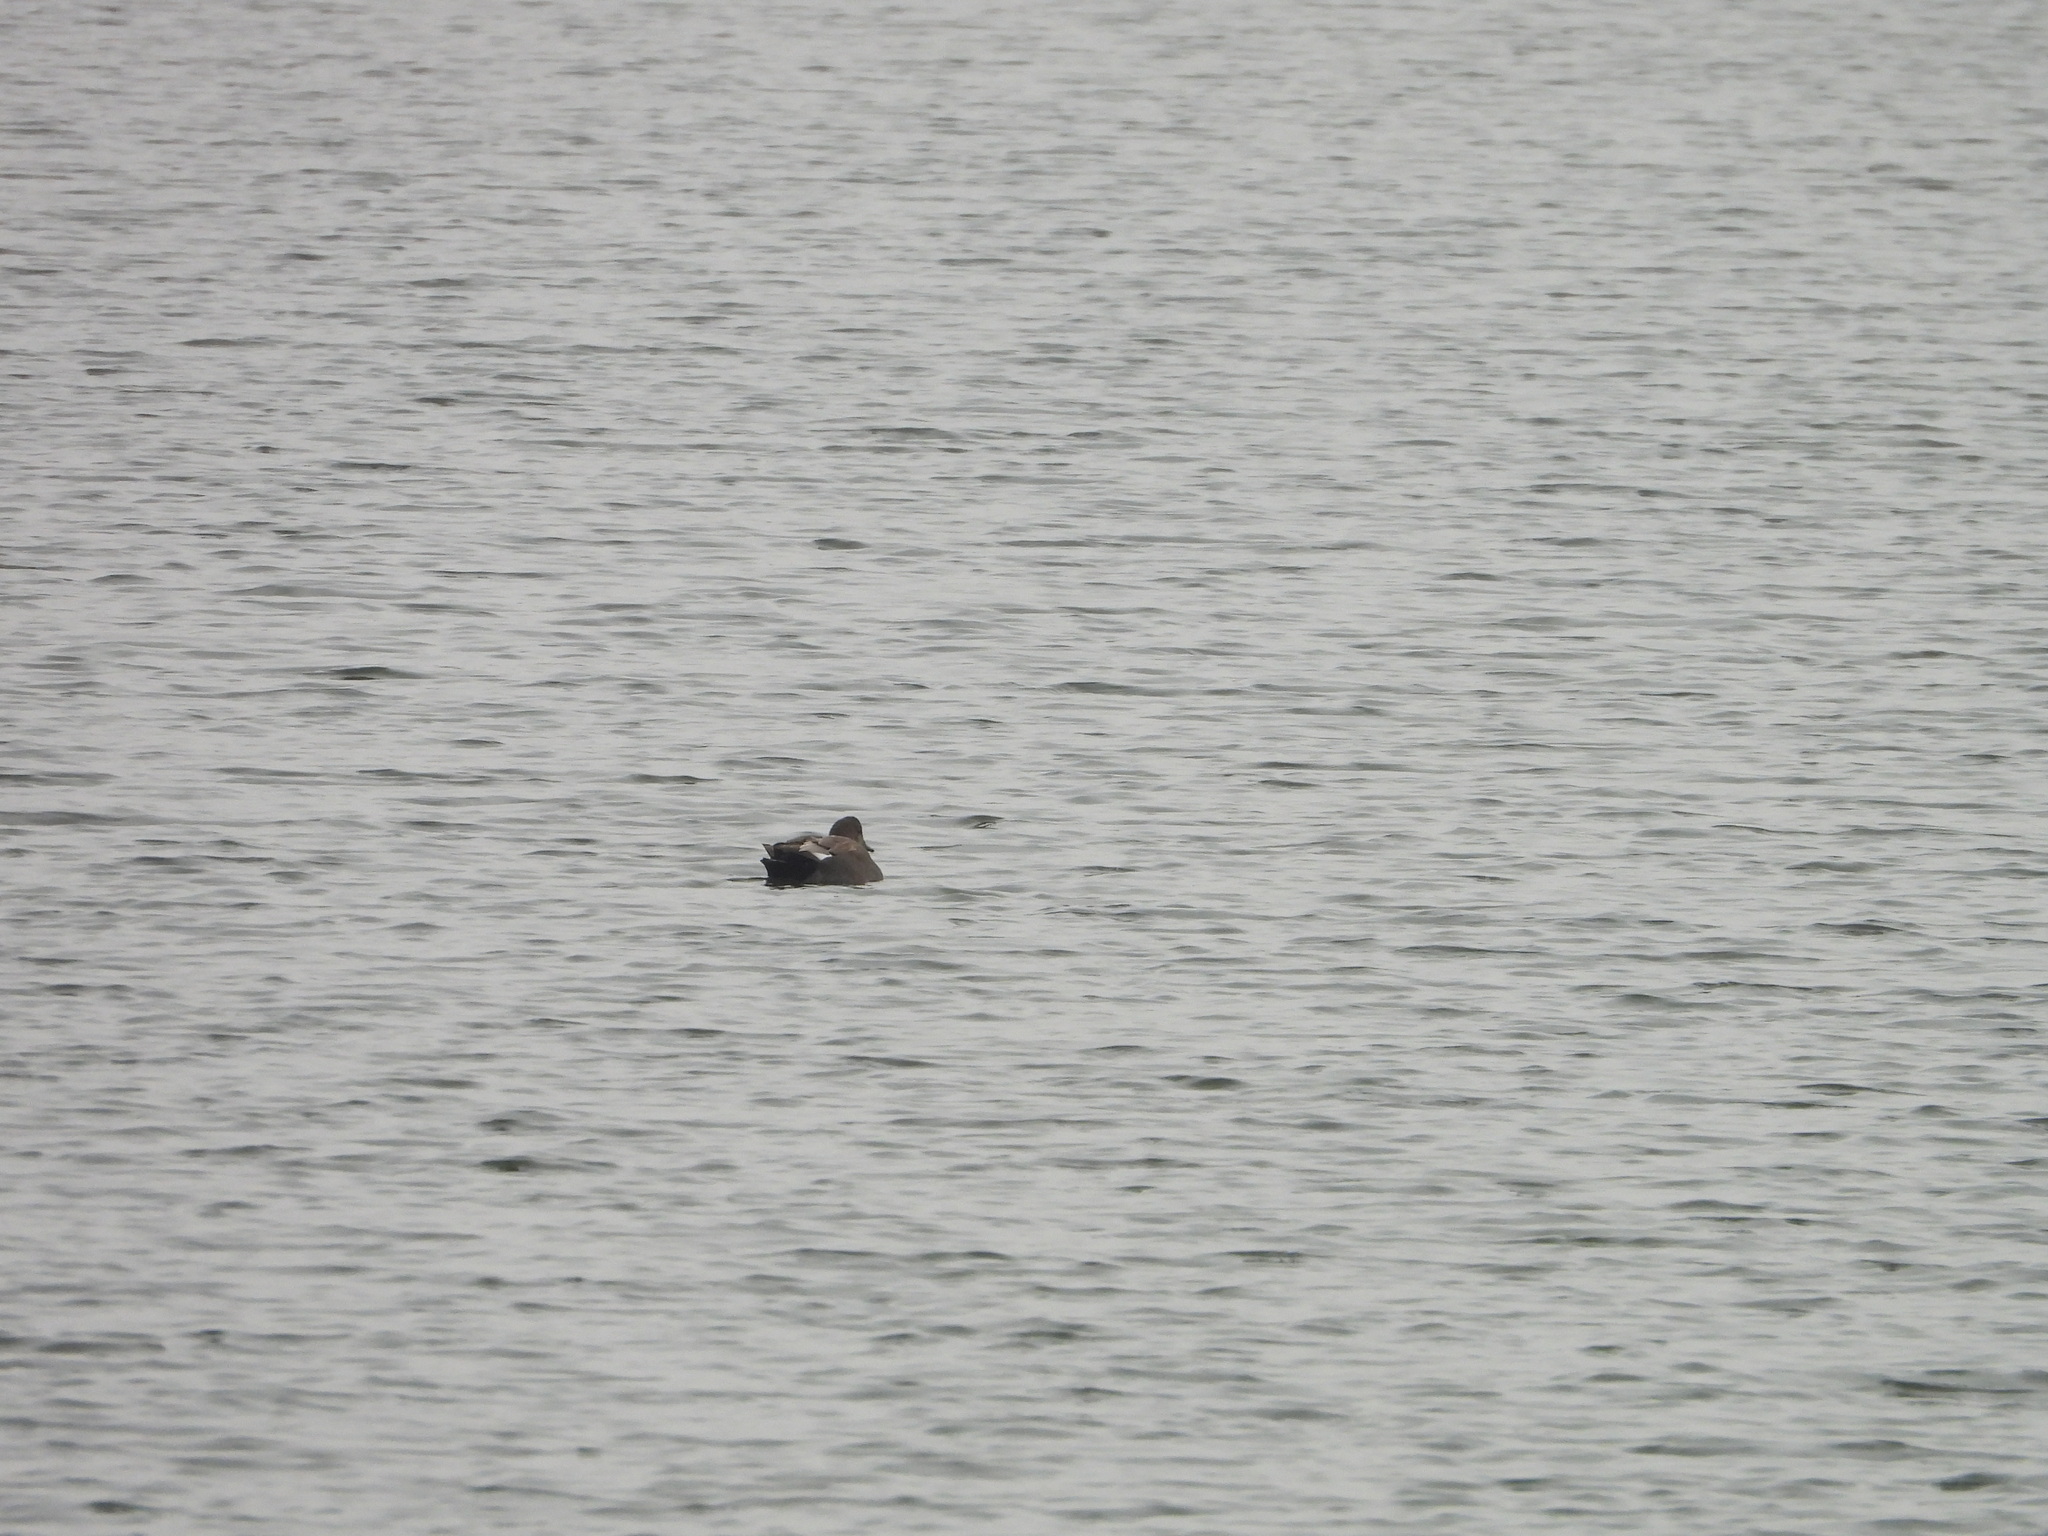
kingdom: Animalia
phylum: Chordata
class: Aves
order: Anseriformes
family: Anatidae
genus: Mareca
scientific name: Mareca strepera
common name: Gadwall
